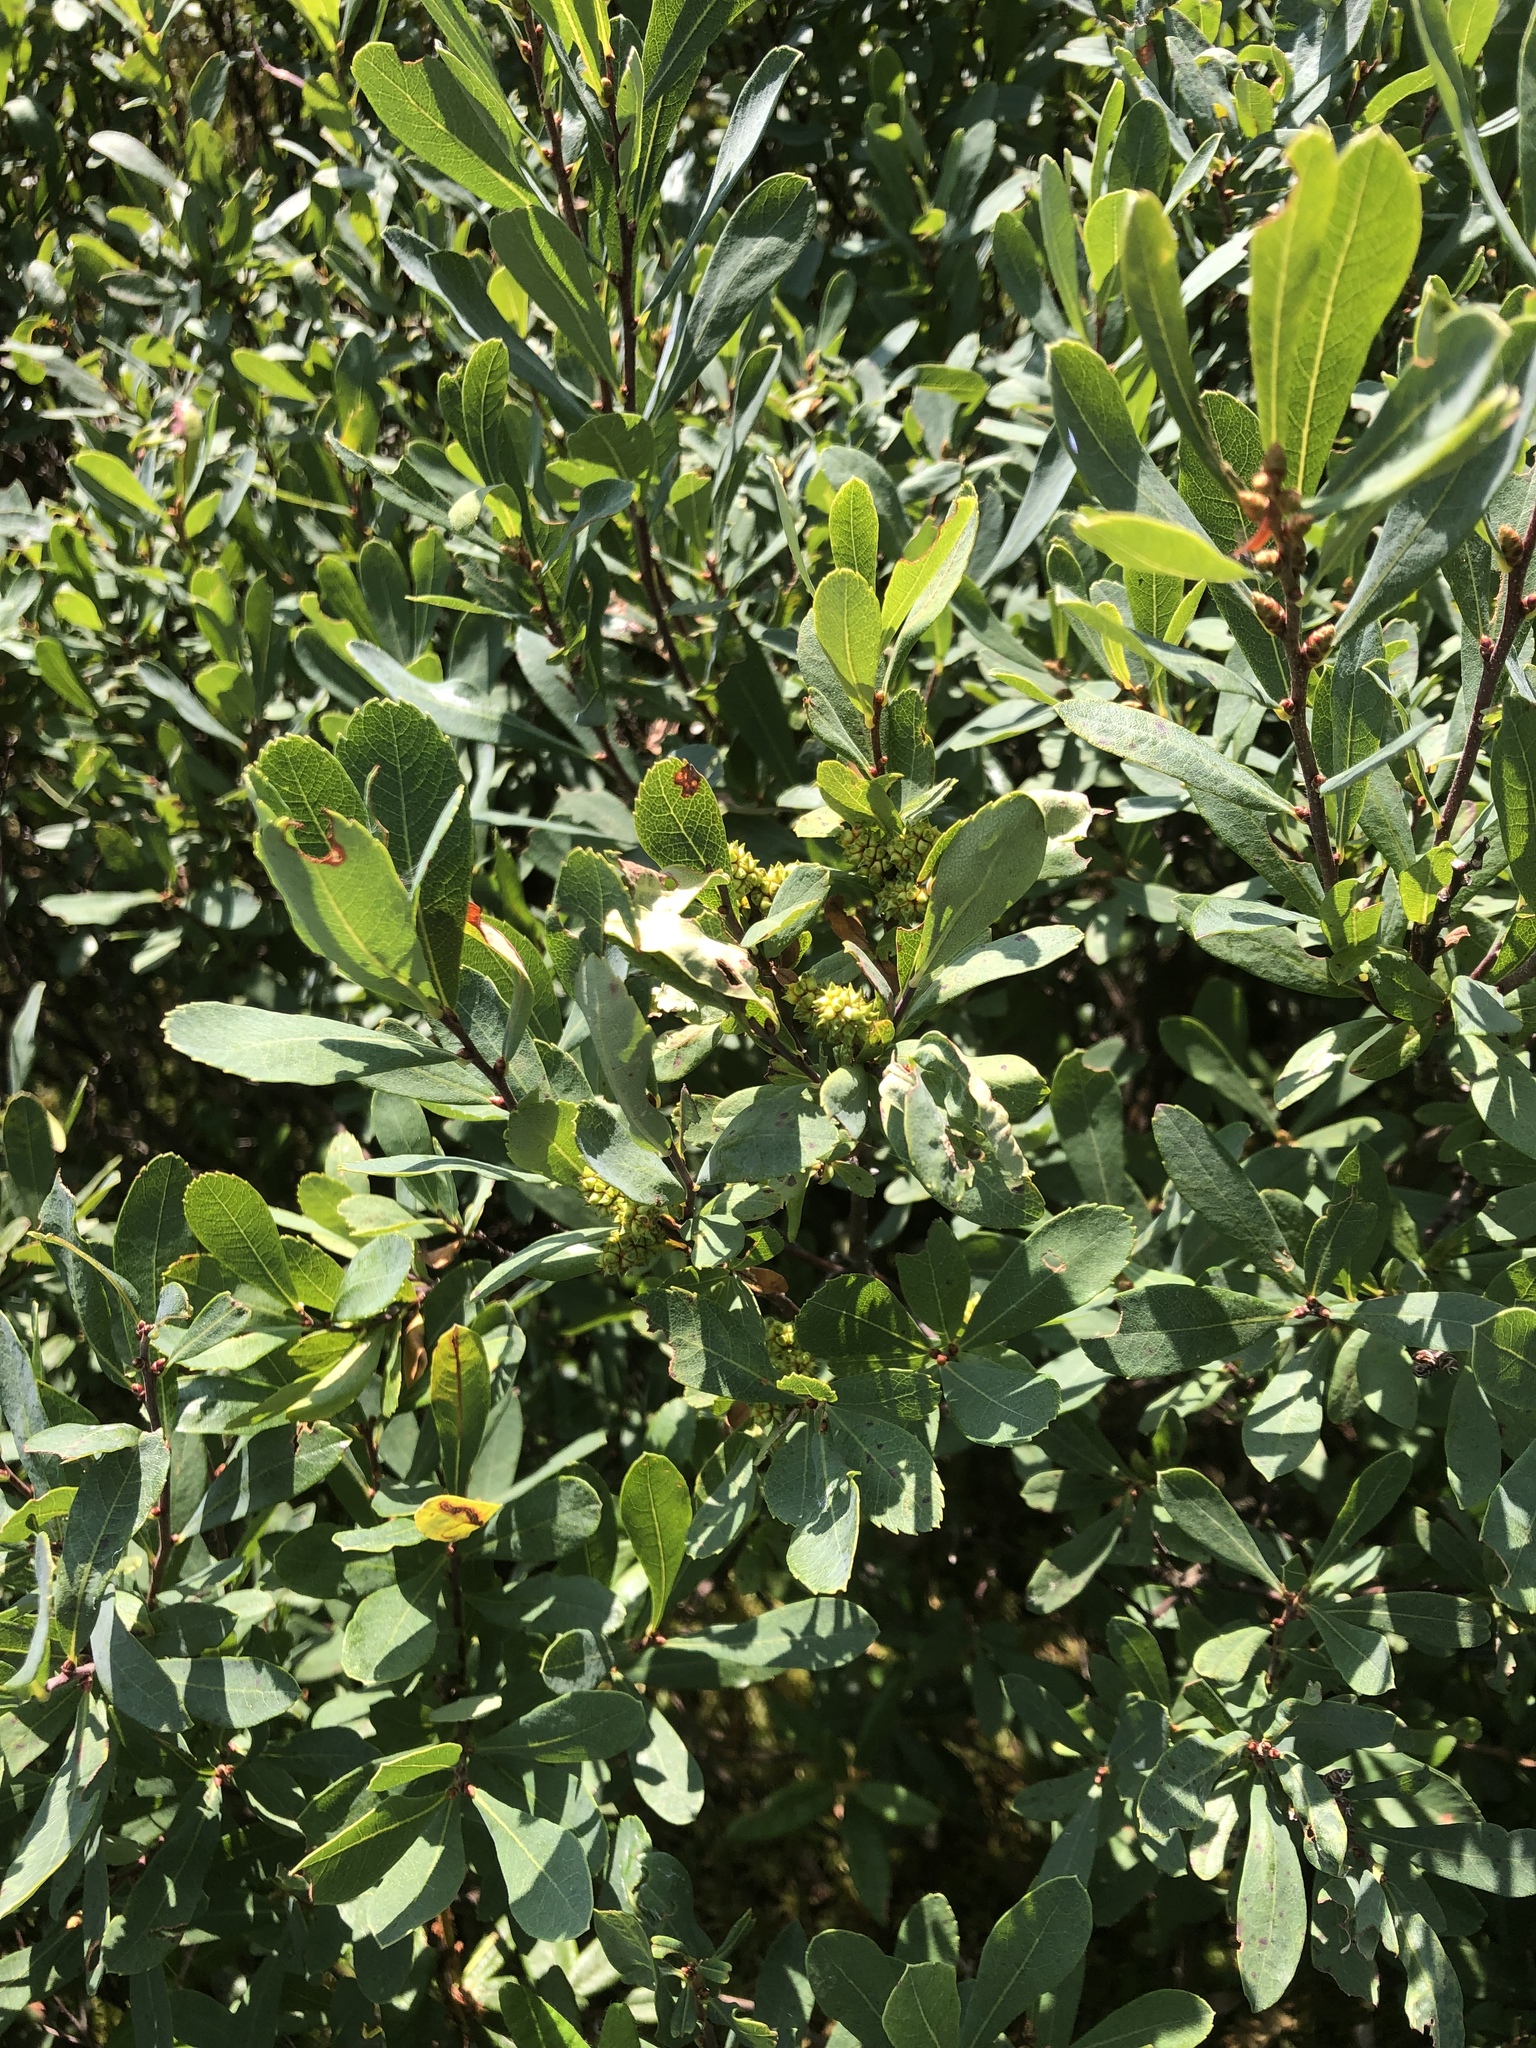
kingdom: Plantae
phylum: Tracheophyta
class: Magnoliopsida
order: Fagales
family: Myricaceae
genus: Myrica
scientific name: Myrica gale
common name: Sweet gale
